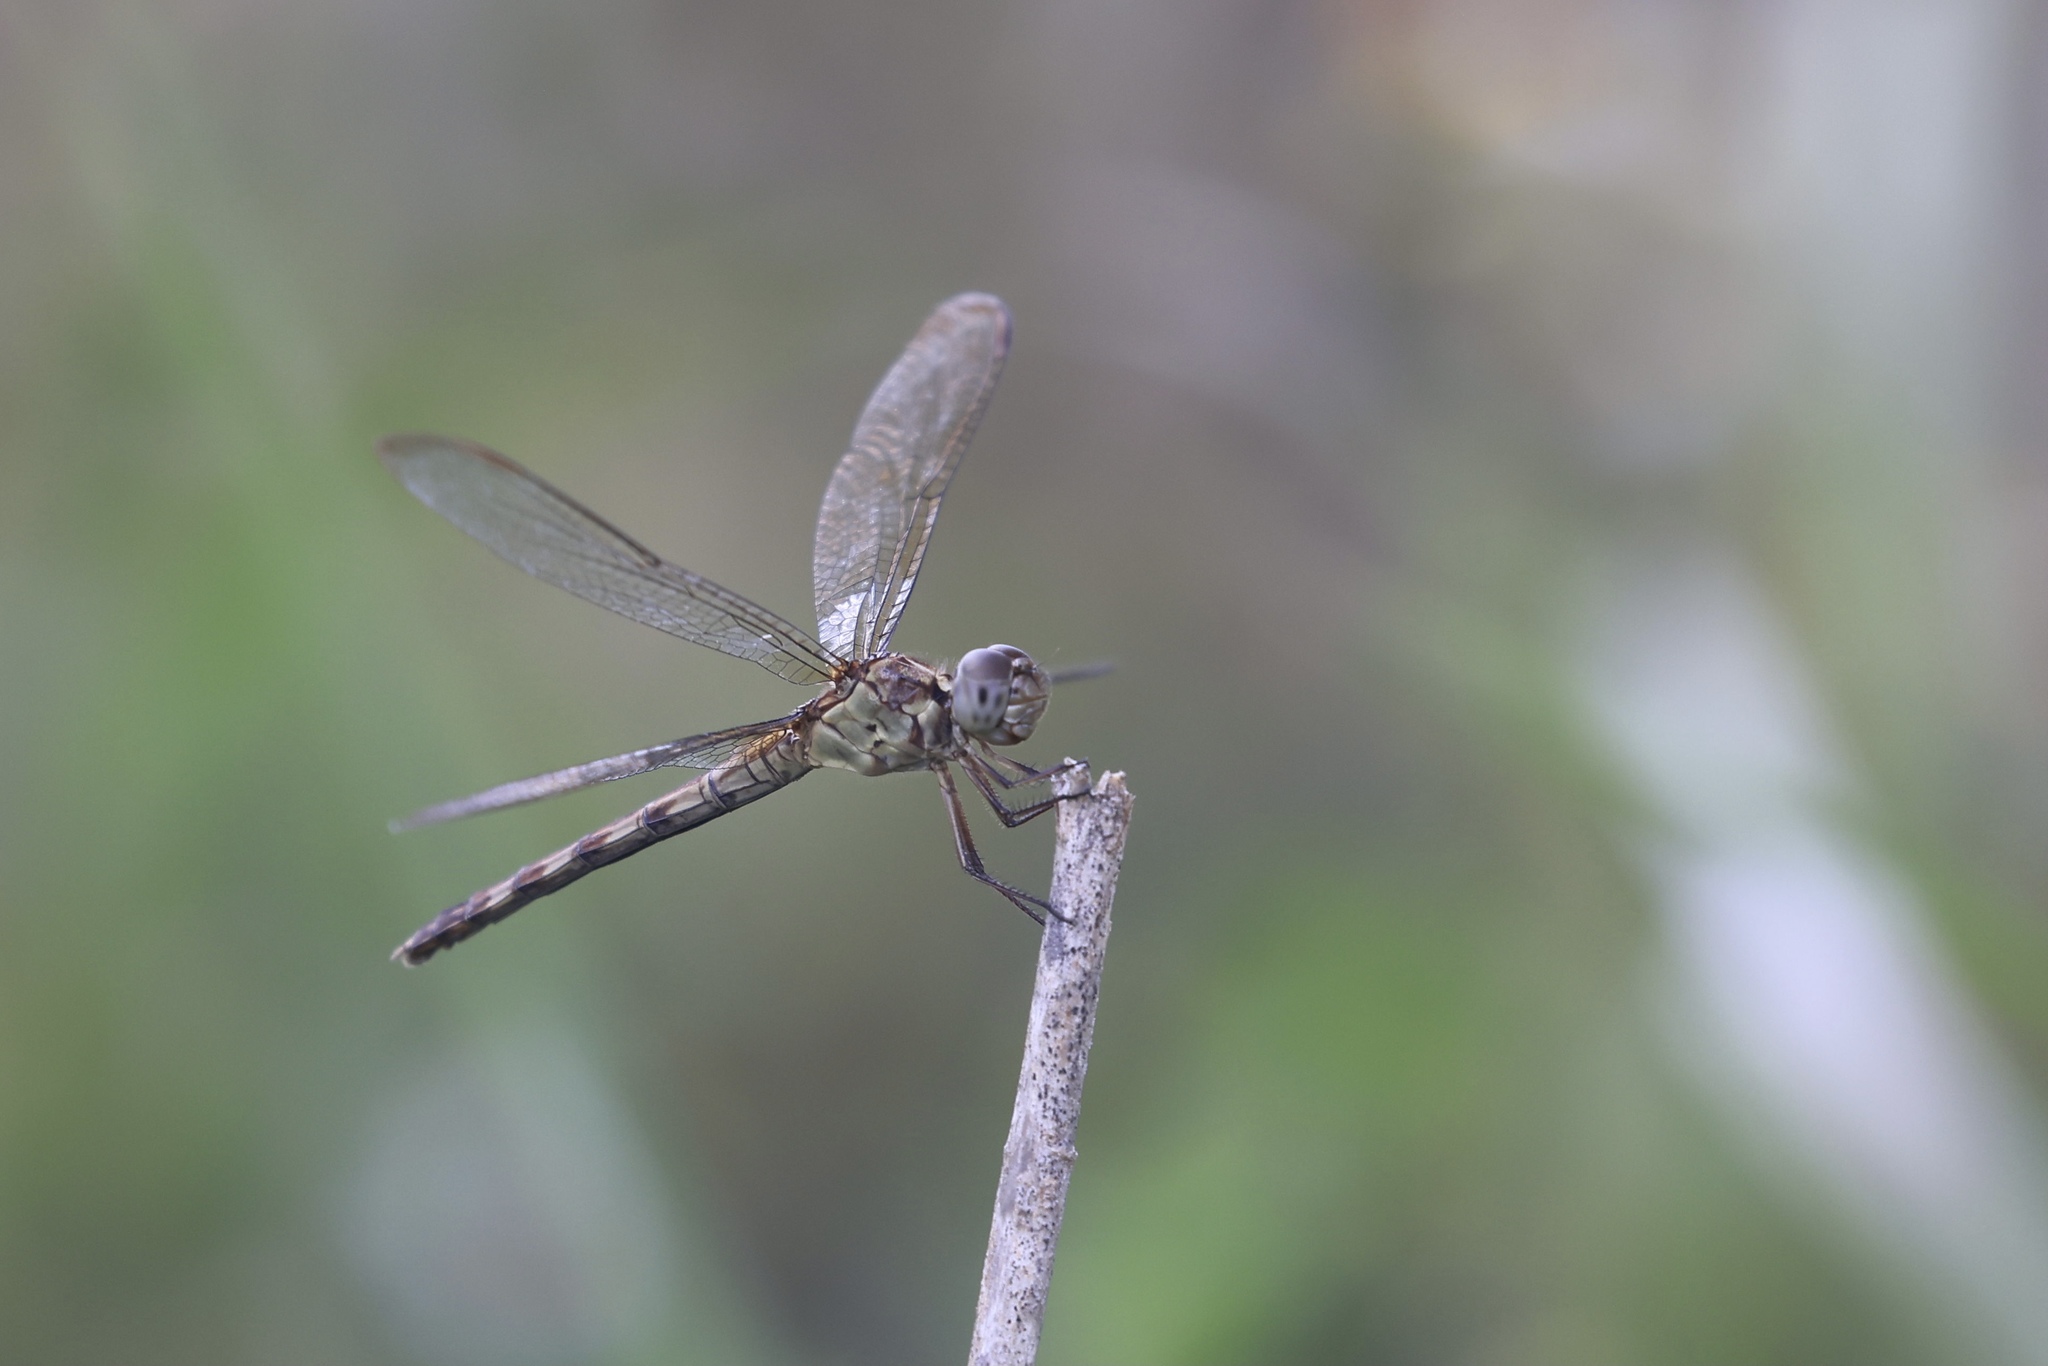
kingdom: Animalia
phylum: Arthropoda
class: Insecta
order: Odonata
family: Libellulidae
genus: Erythrodiplax
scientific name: Erythrodiplax umbrata
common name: Band-winged dragonlet
